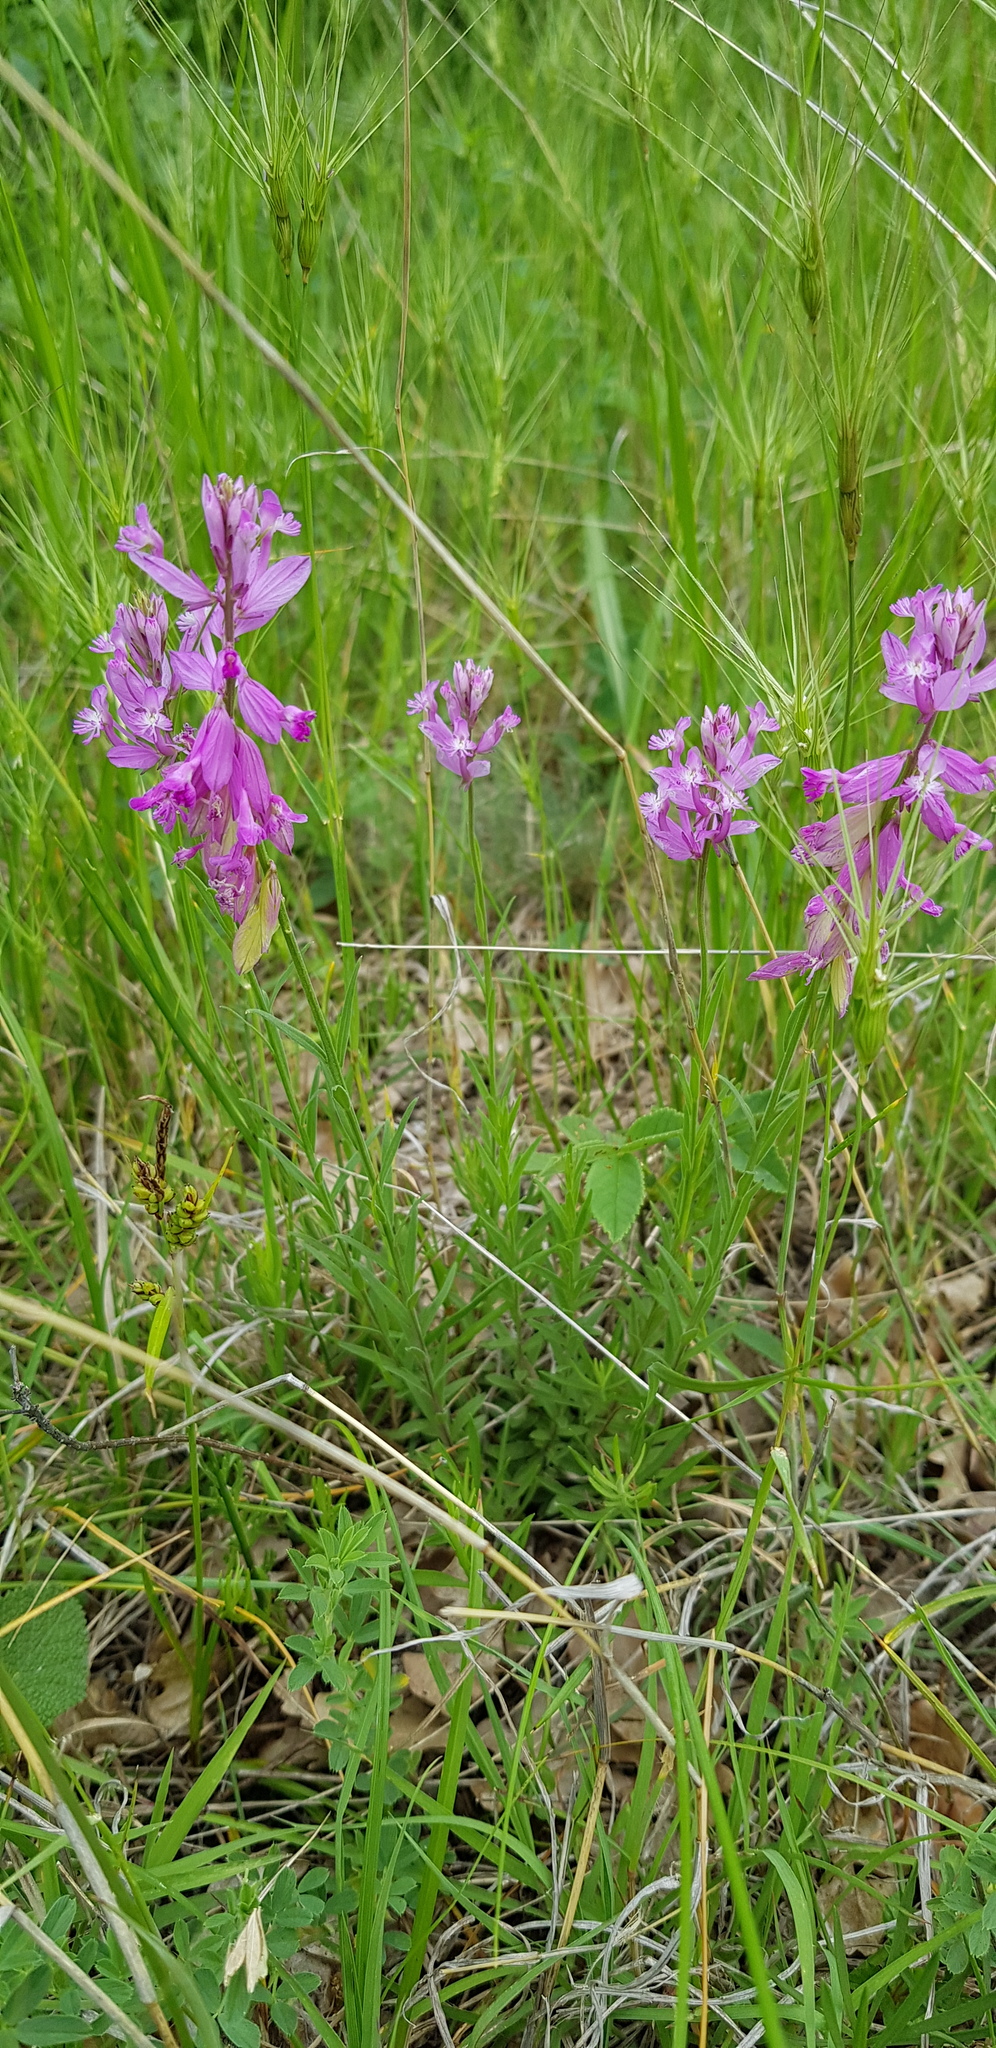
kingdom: Plantae
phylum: Tracheophyta
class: Magnoliopsida
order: Fabales
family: Polygalaceae
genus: Polygala
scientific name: Polygala major
